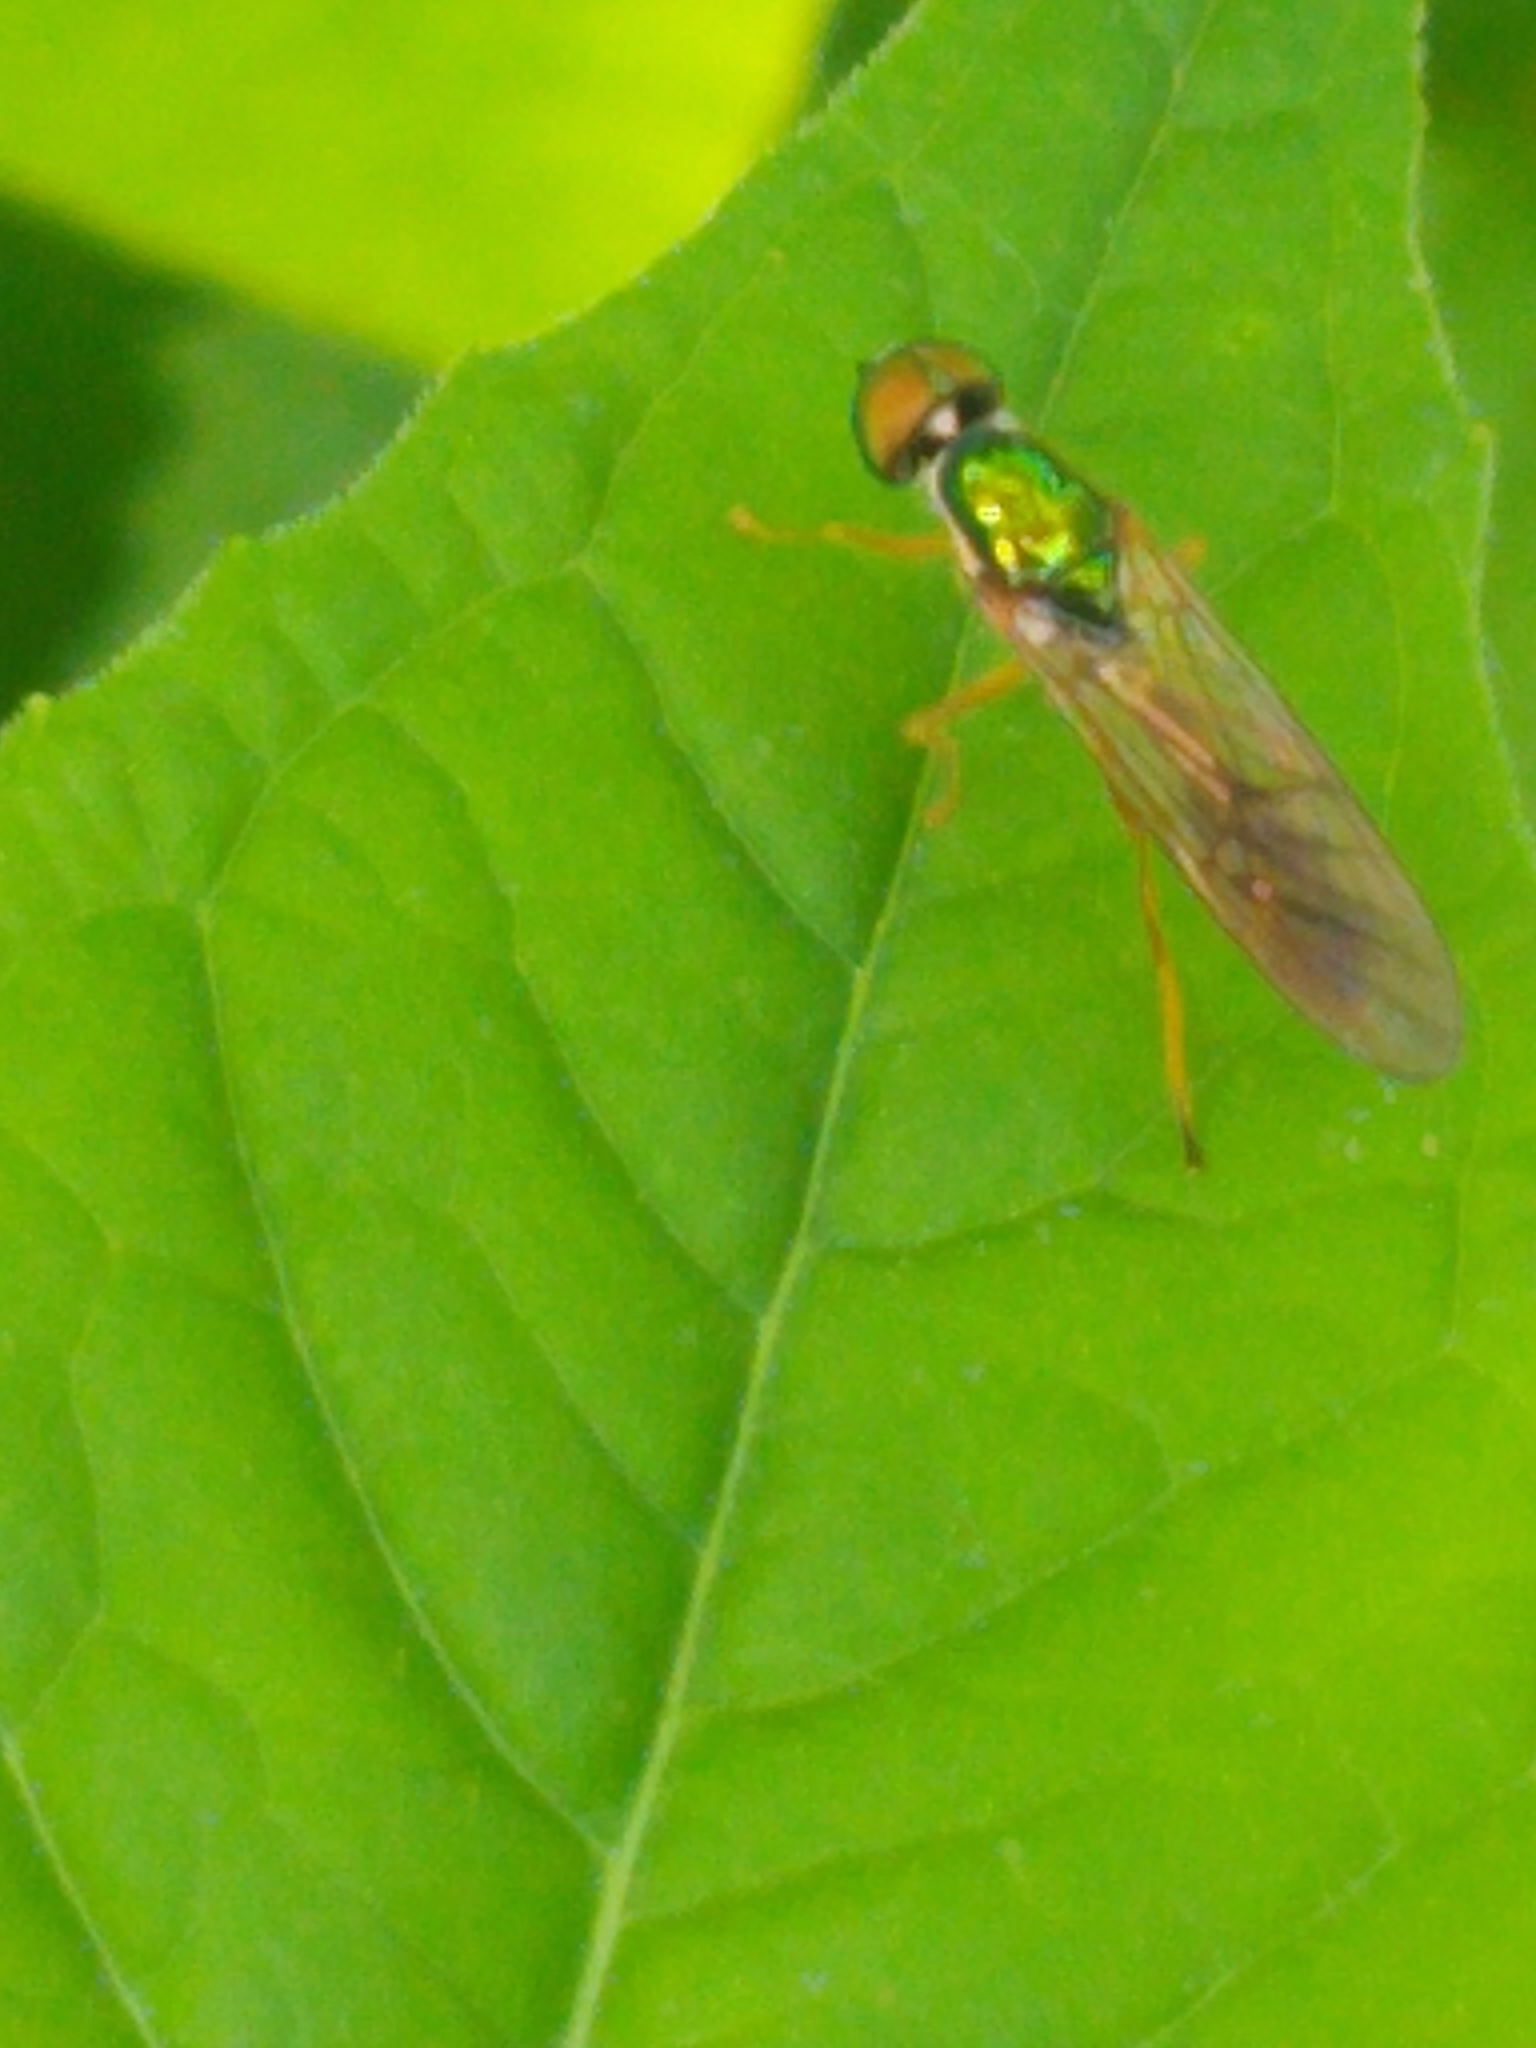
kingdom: Animalia
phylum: Arthropoda
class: Insecta
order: Diptera
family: Stratiomyidae
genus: Sargus
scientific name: Sargus fasciatus
